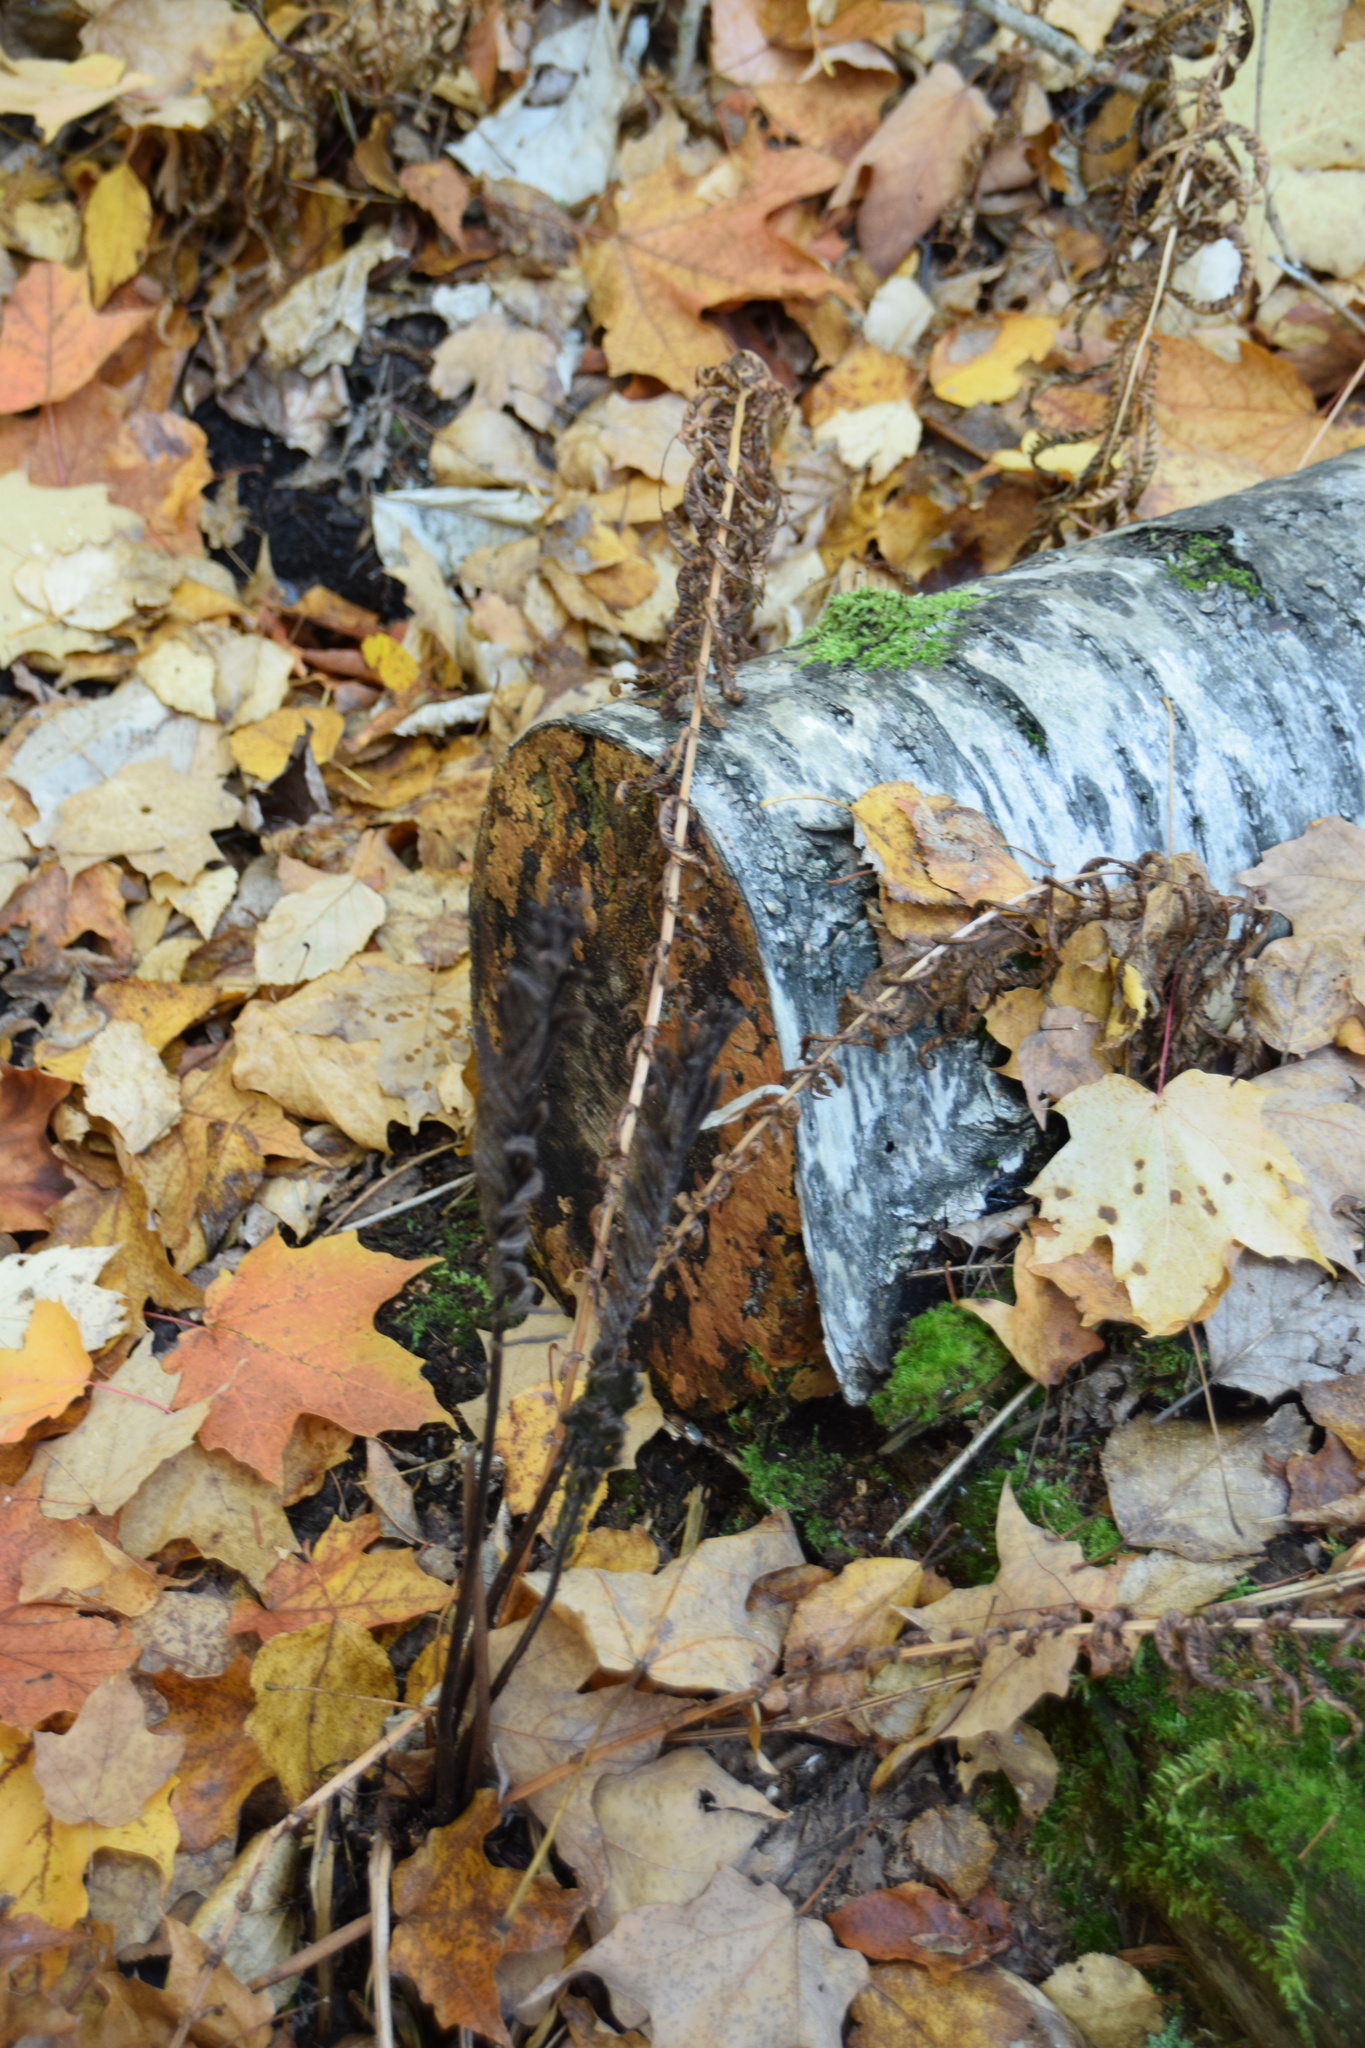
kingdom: Plantae
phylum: Tracheophyta
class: Polypodiopsida
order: Polypodiales
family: Onocleaceae
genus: Matteuccia
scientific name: Matteuccia struthiopteris
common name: Ostrich fern
